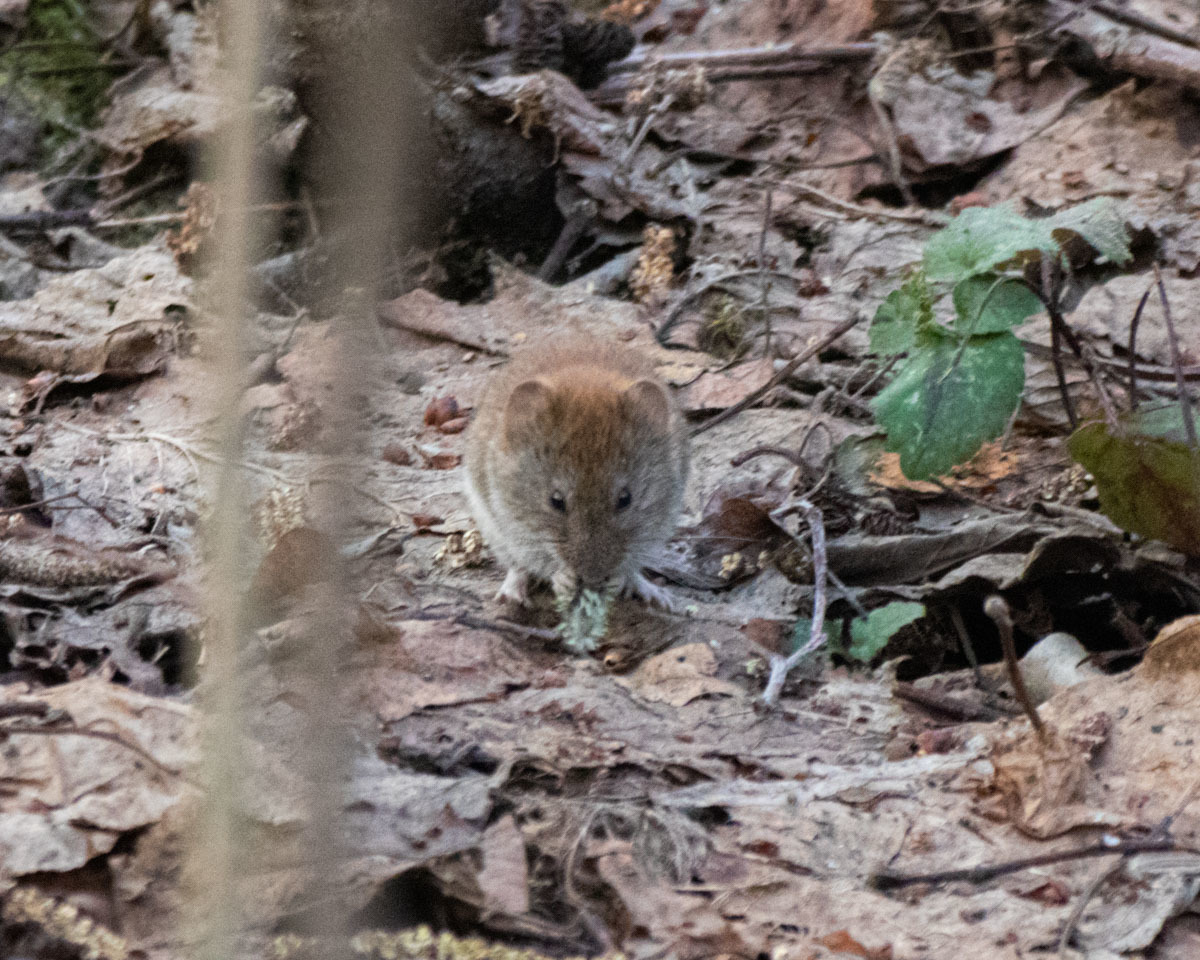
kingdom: Animalia
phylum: Chordata
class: Mammalia
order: Rodentia
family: Cricetidae
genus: Myodes
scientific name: Myodes glareolus
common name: Bank vole
